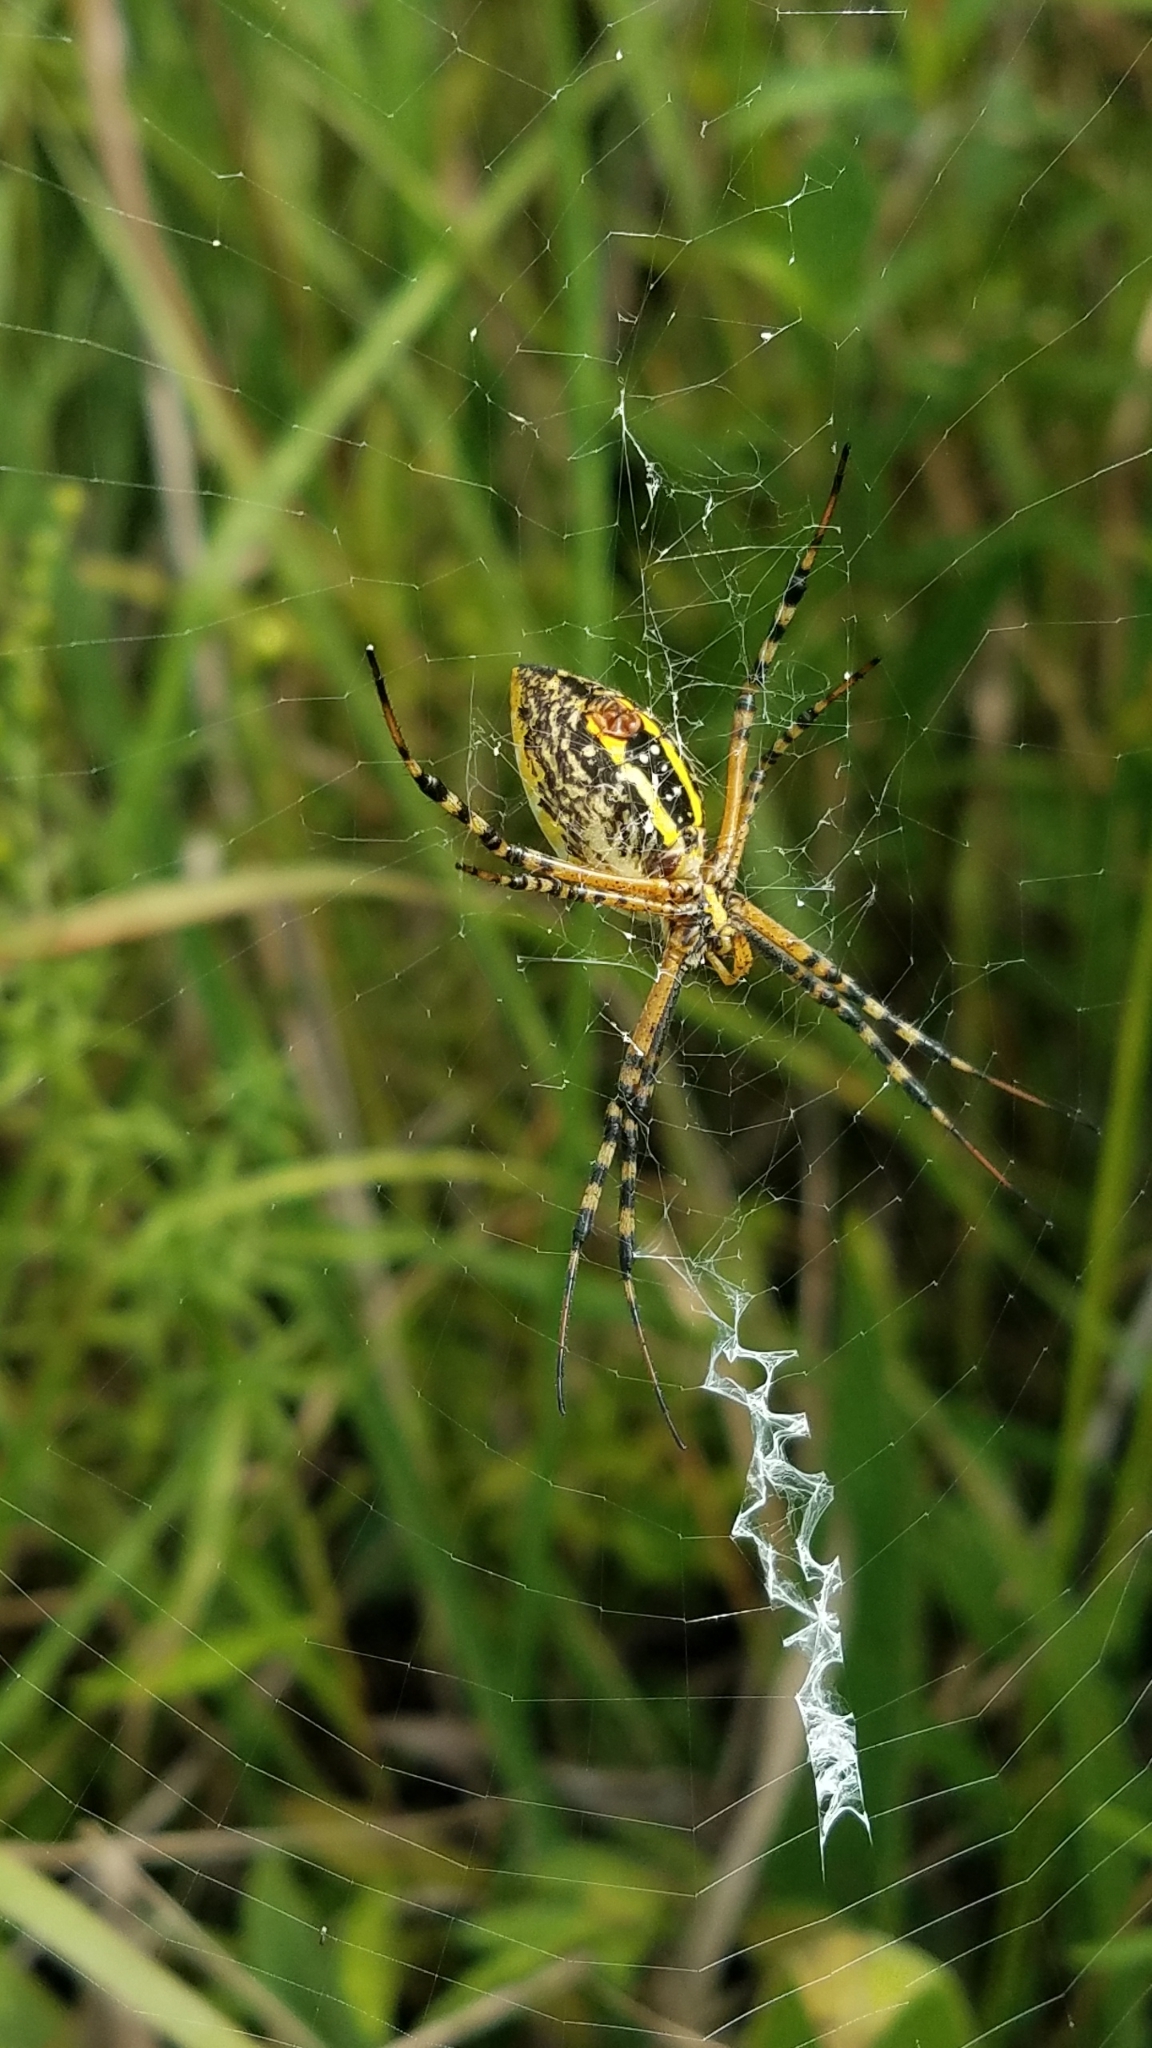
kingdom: Animalia
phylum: Arthropoda
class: Arachnida
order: Araneae
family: Araneidae
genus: Argiope
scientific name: Argiope trifasciata
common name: Banded garden spider
